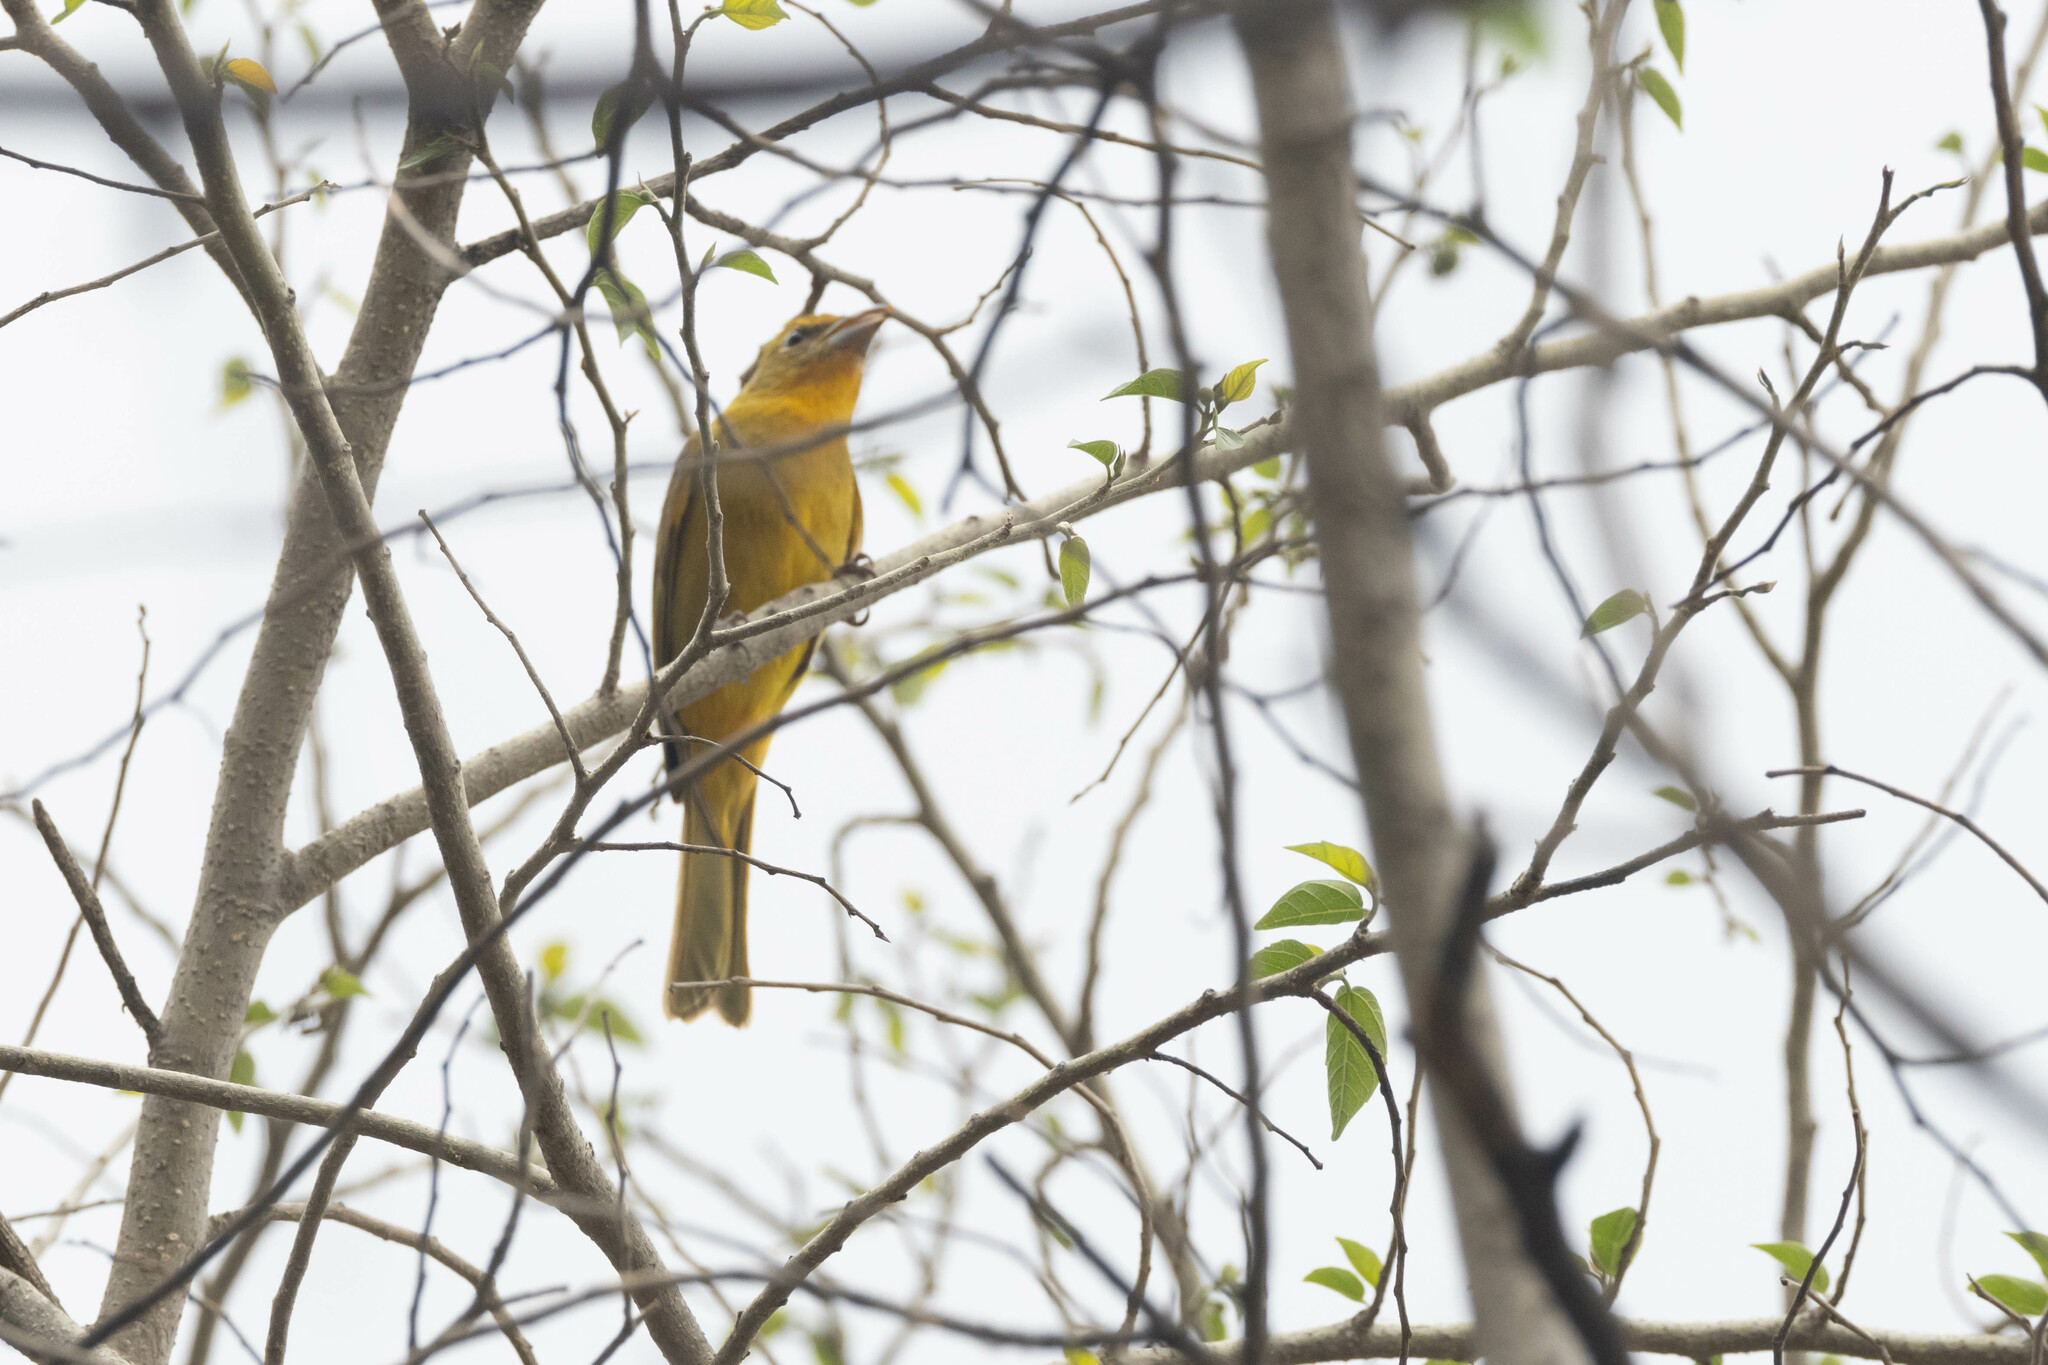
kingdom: Animalia
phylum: Chordata
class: Aves
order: Passeriformes
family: Cardinalidae
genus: Piranga
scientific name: Piranga flava
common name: Red tanager
